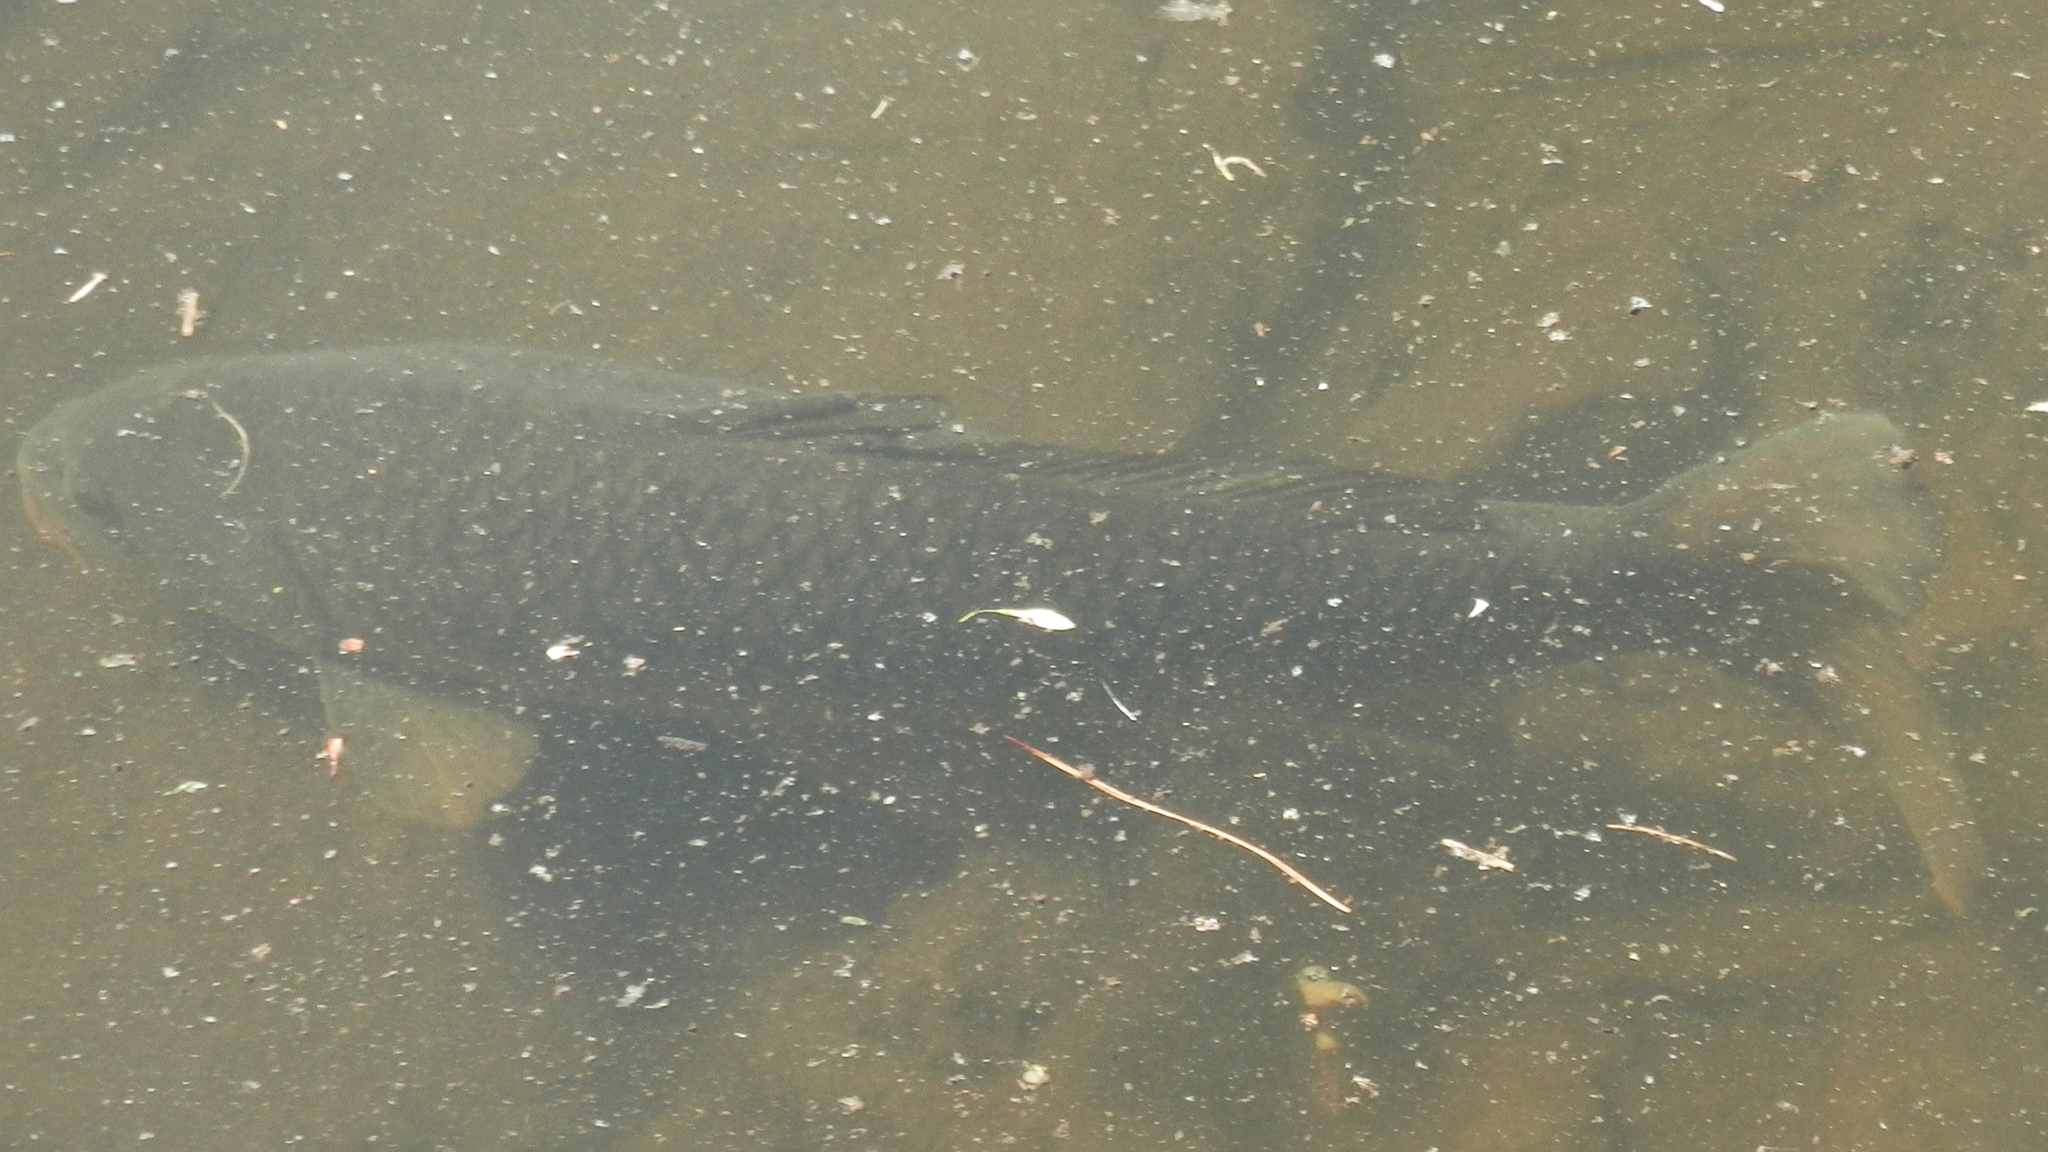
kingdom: Animalia
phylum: Chordata
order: Cypriniformes
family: Cyprinidae
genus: Cyprinus
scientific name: Cyprinus carpio
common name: Common carp
